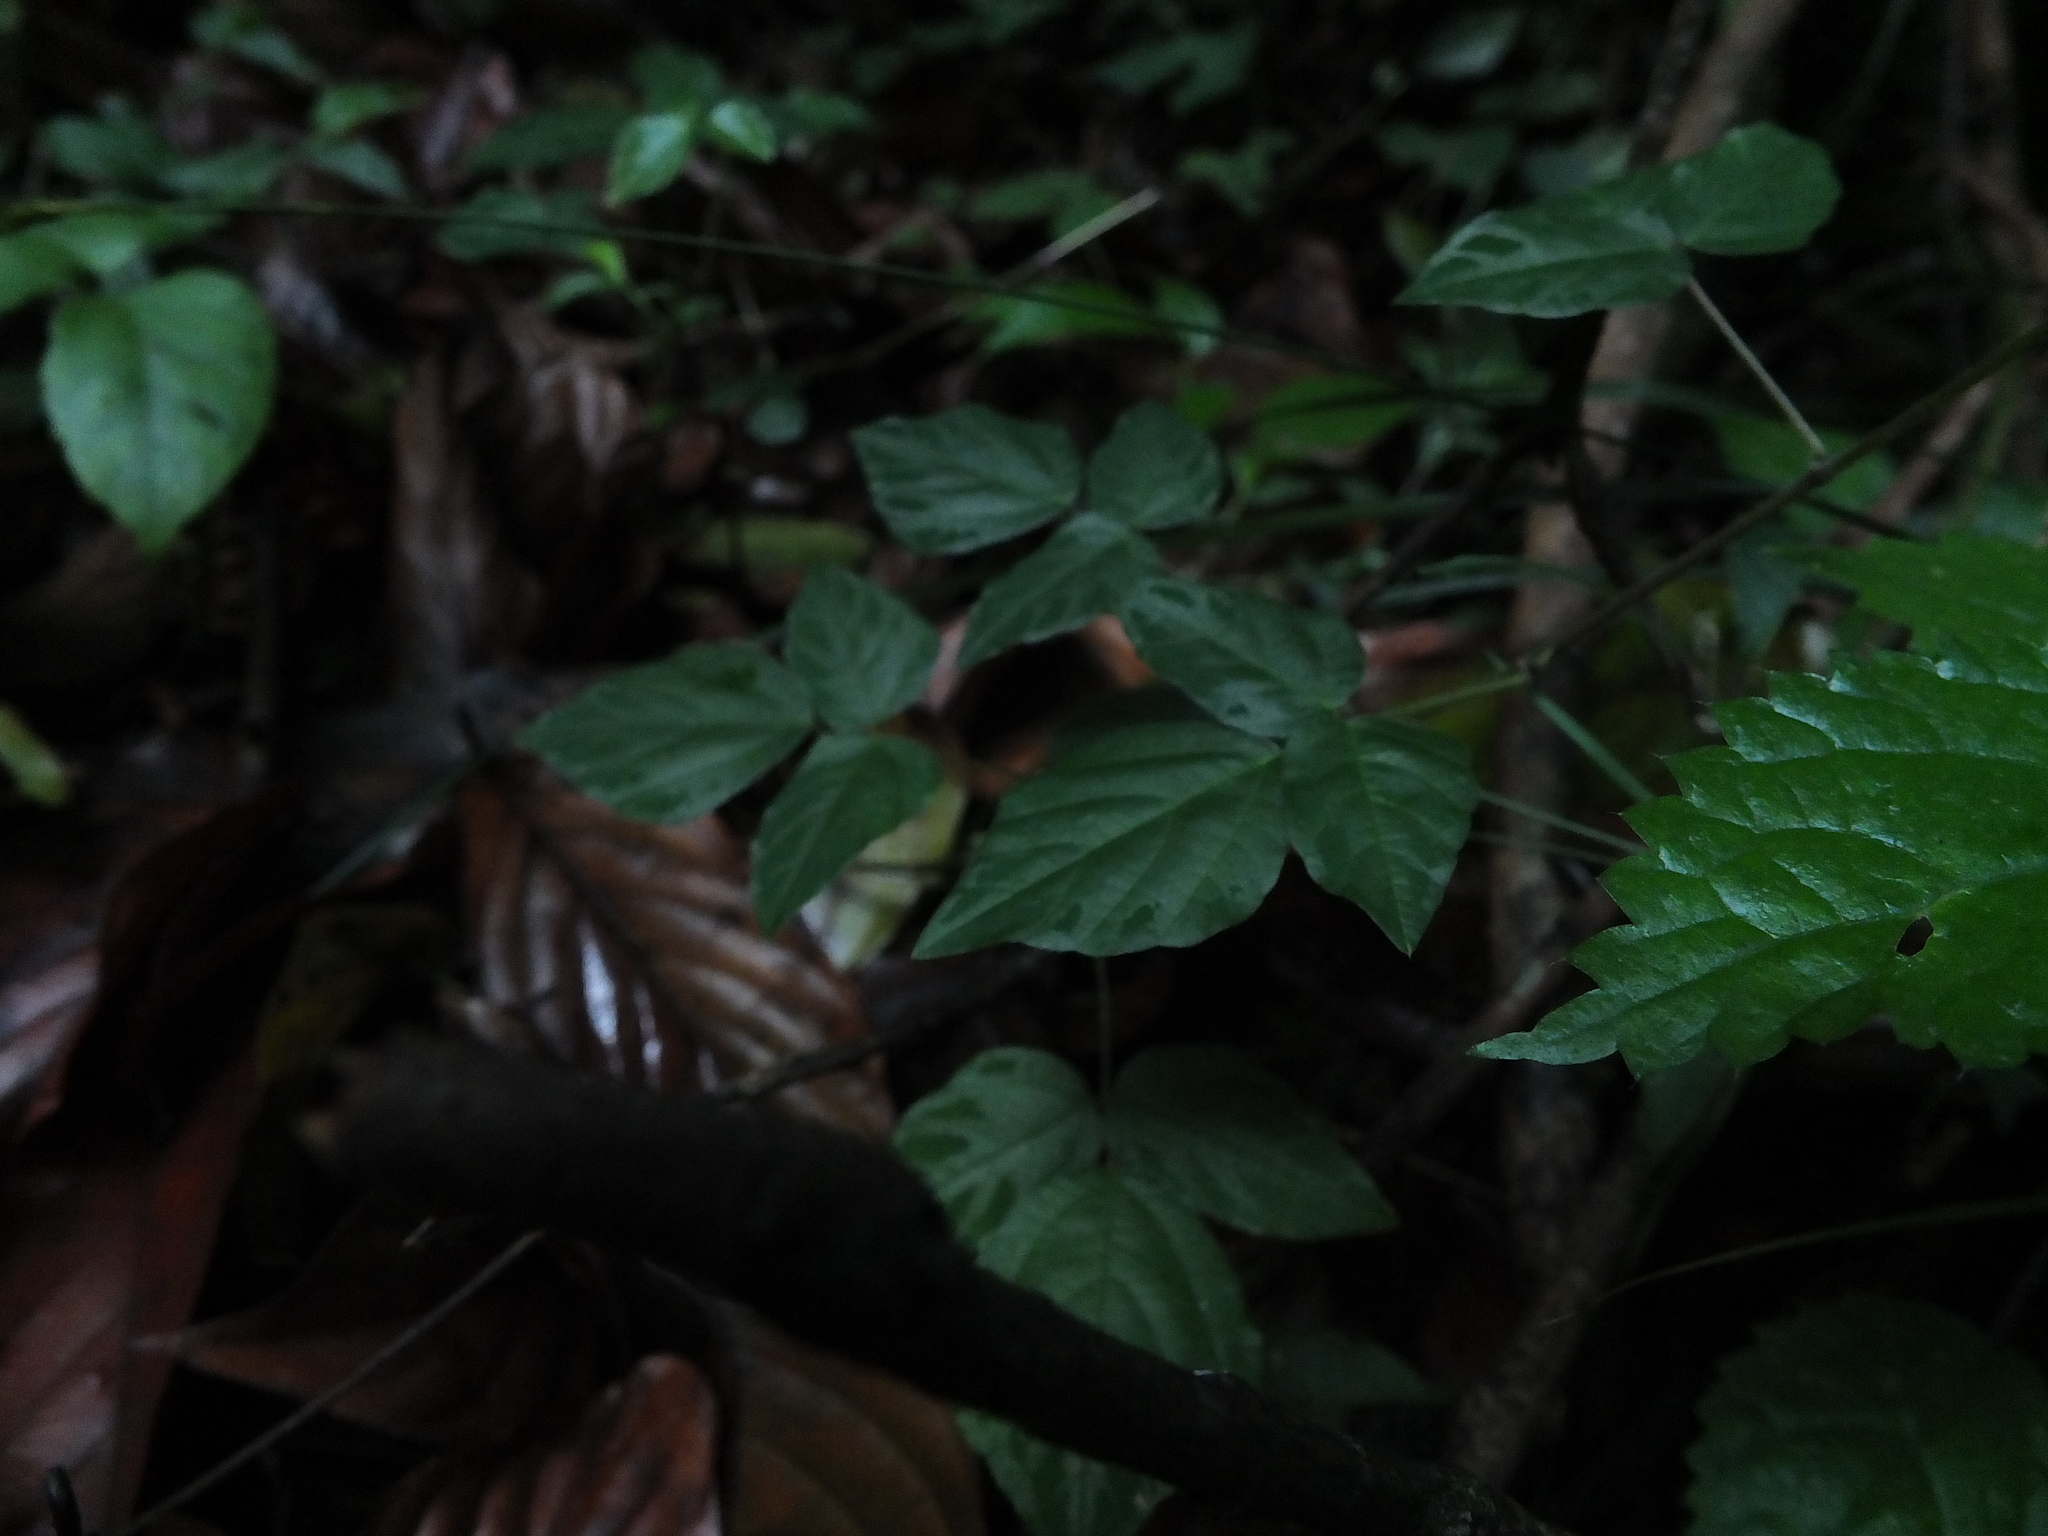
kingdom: Plantae
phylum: Tracheophyta
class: Magnoliopsida
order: Fabales
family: Fabaceae
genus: Hylodesmum
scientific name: Hylodesmum repandum
